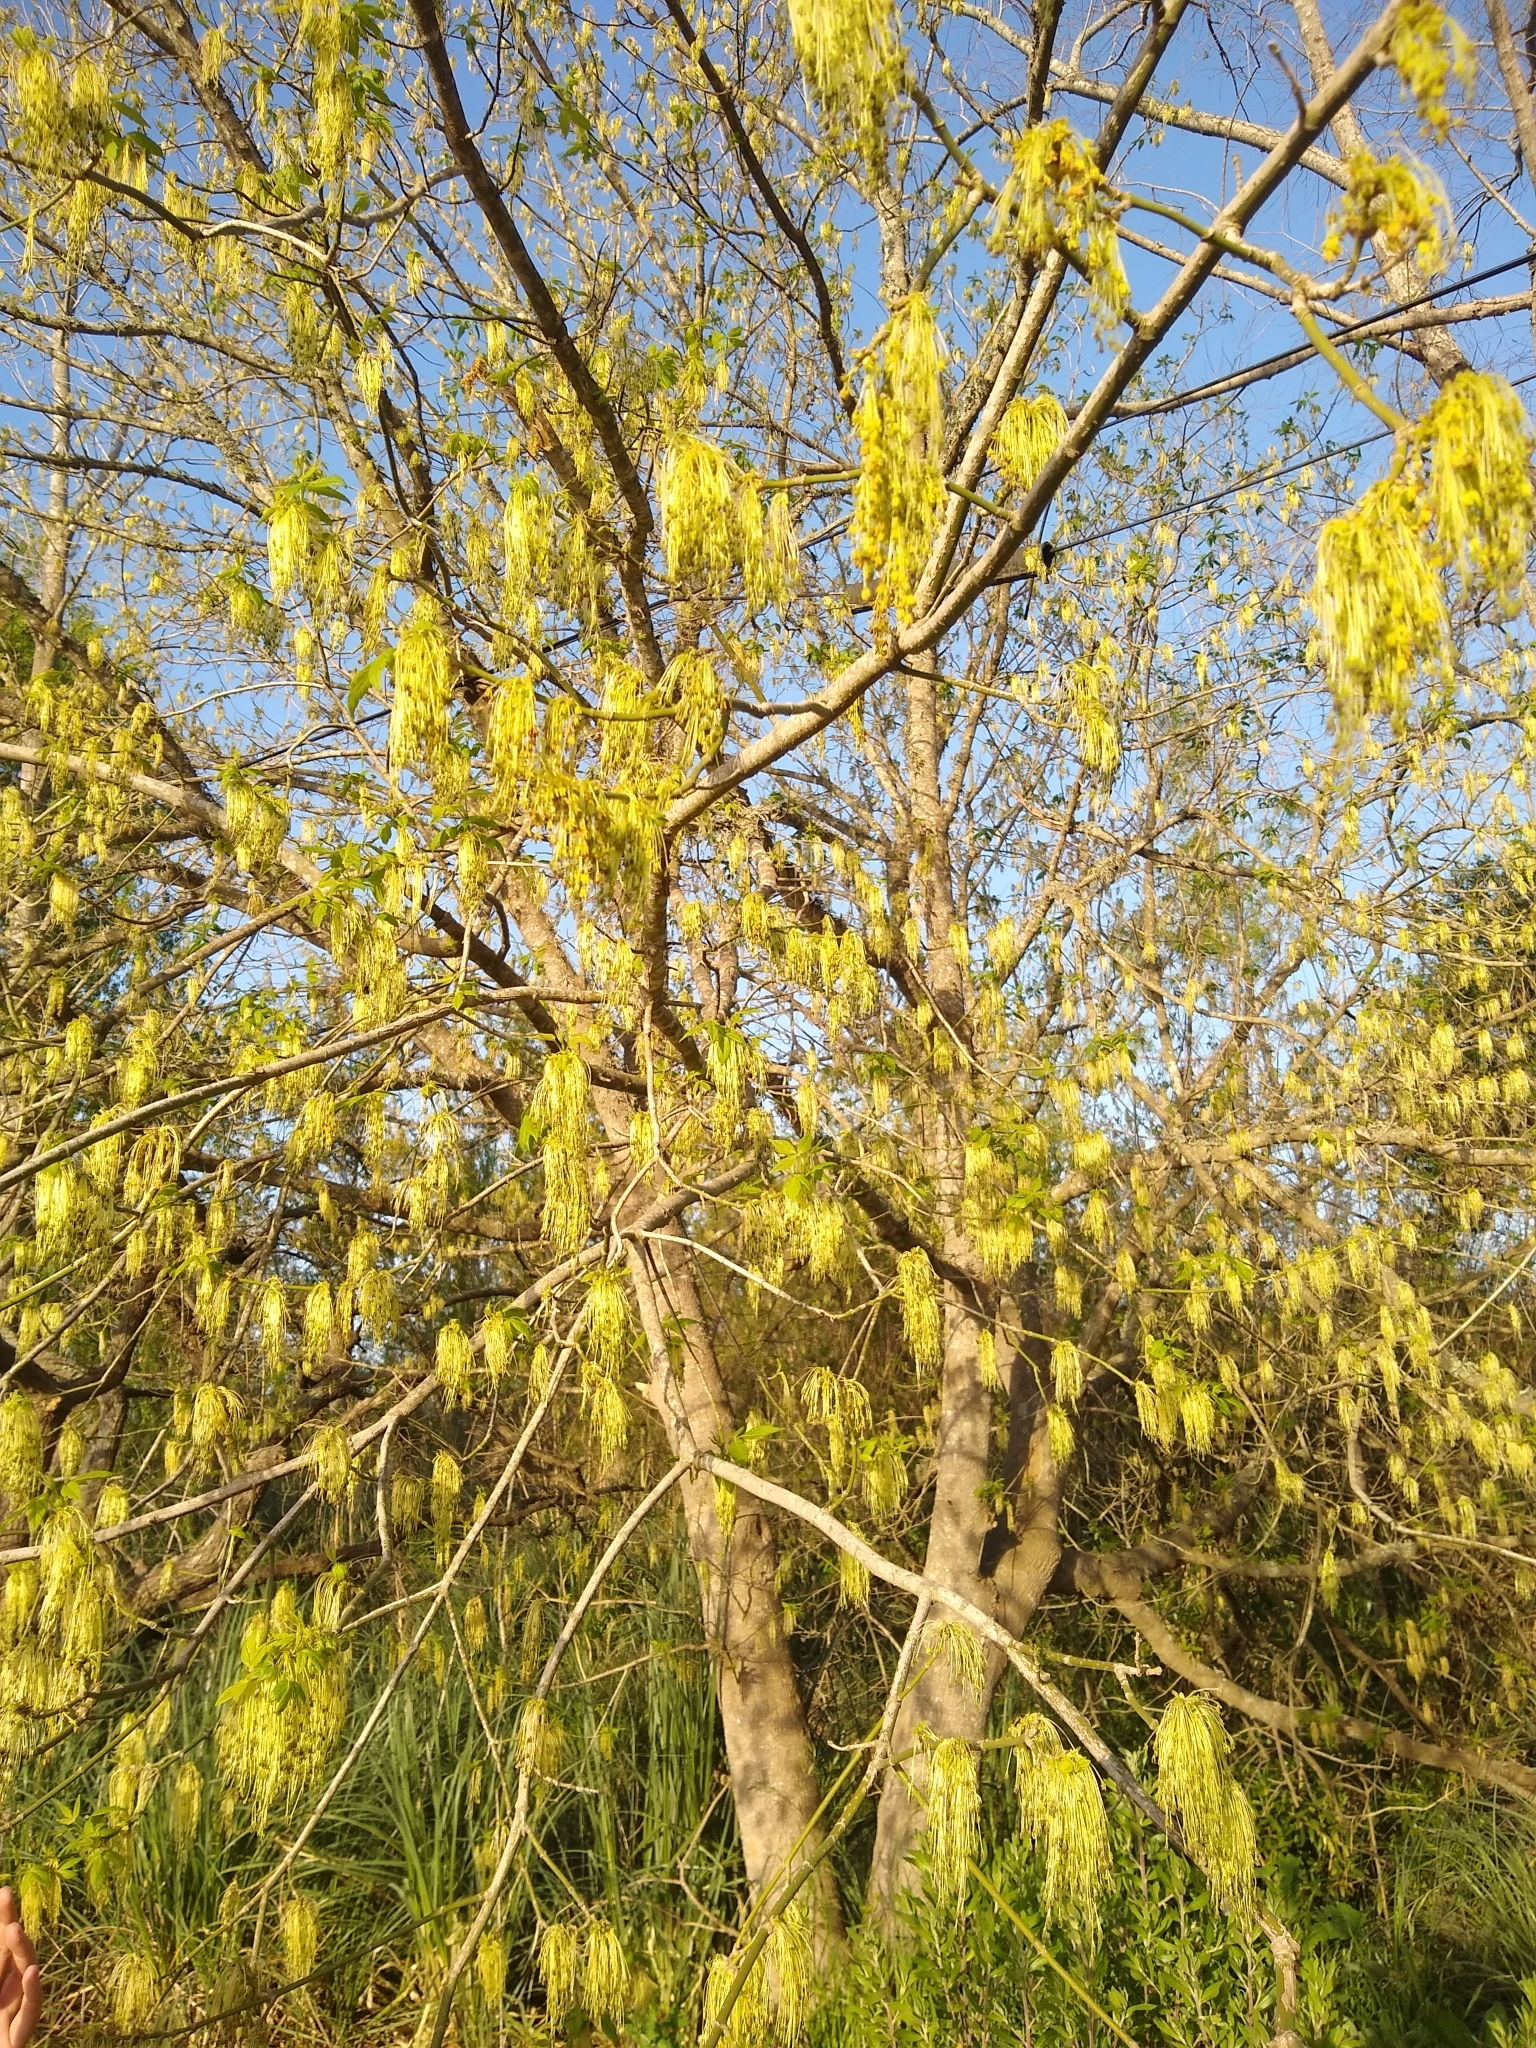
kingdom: Plantae
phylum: Tracheophyta
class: Magnoliopsida
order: Sapindales
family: Sapindaceae
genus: Acer
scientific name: Acer negundo
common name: Ashleaf maple
